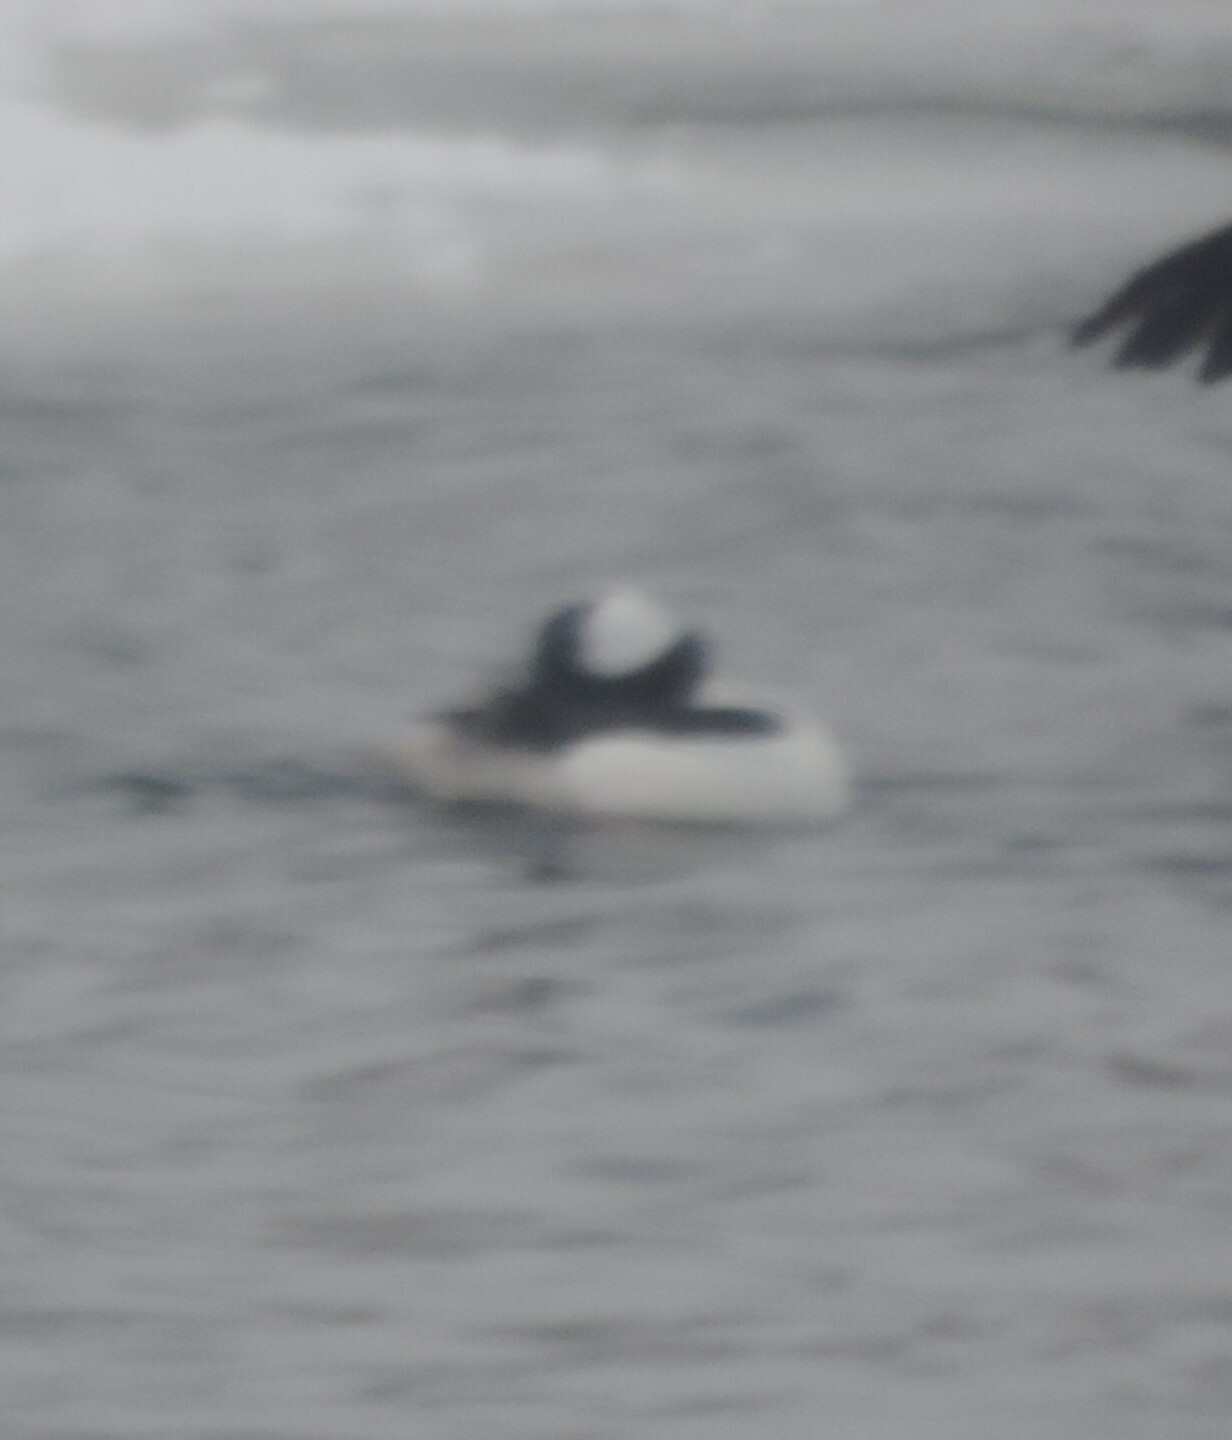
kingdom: Animalia
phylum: Chordata
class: Aves
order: Anseriformes
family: Anatidae
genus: Bucephala
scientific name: Bucephala albeola
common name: Bufflehead
